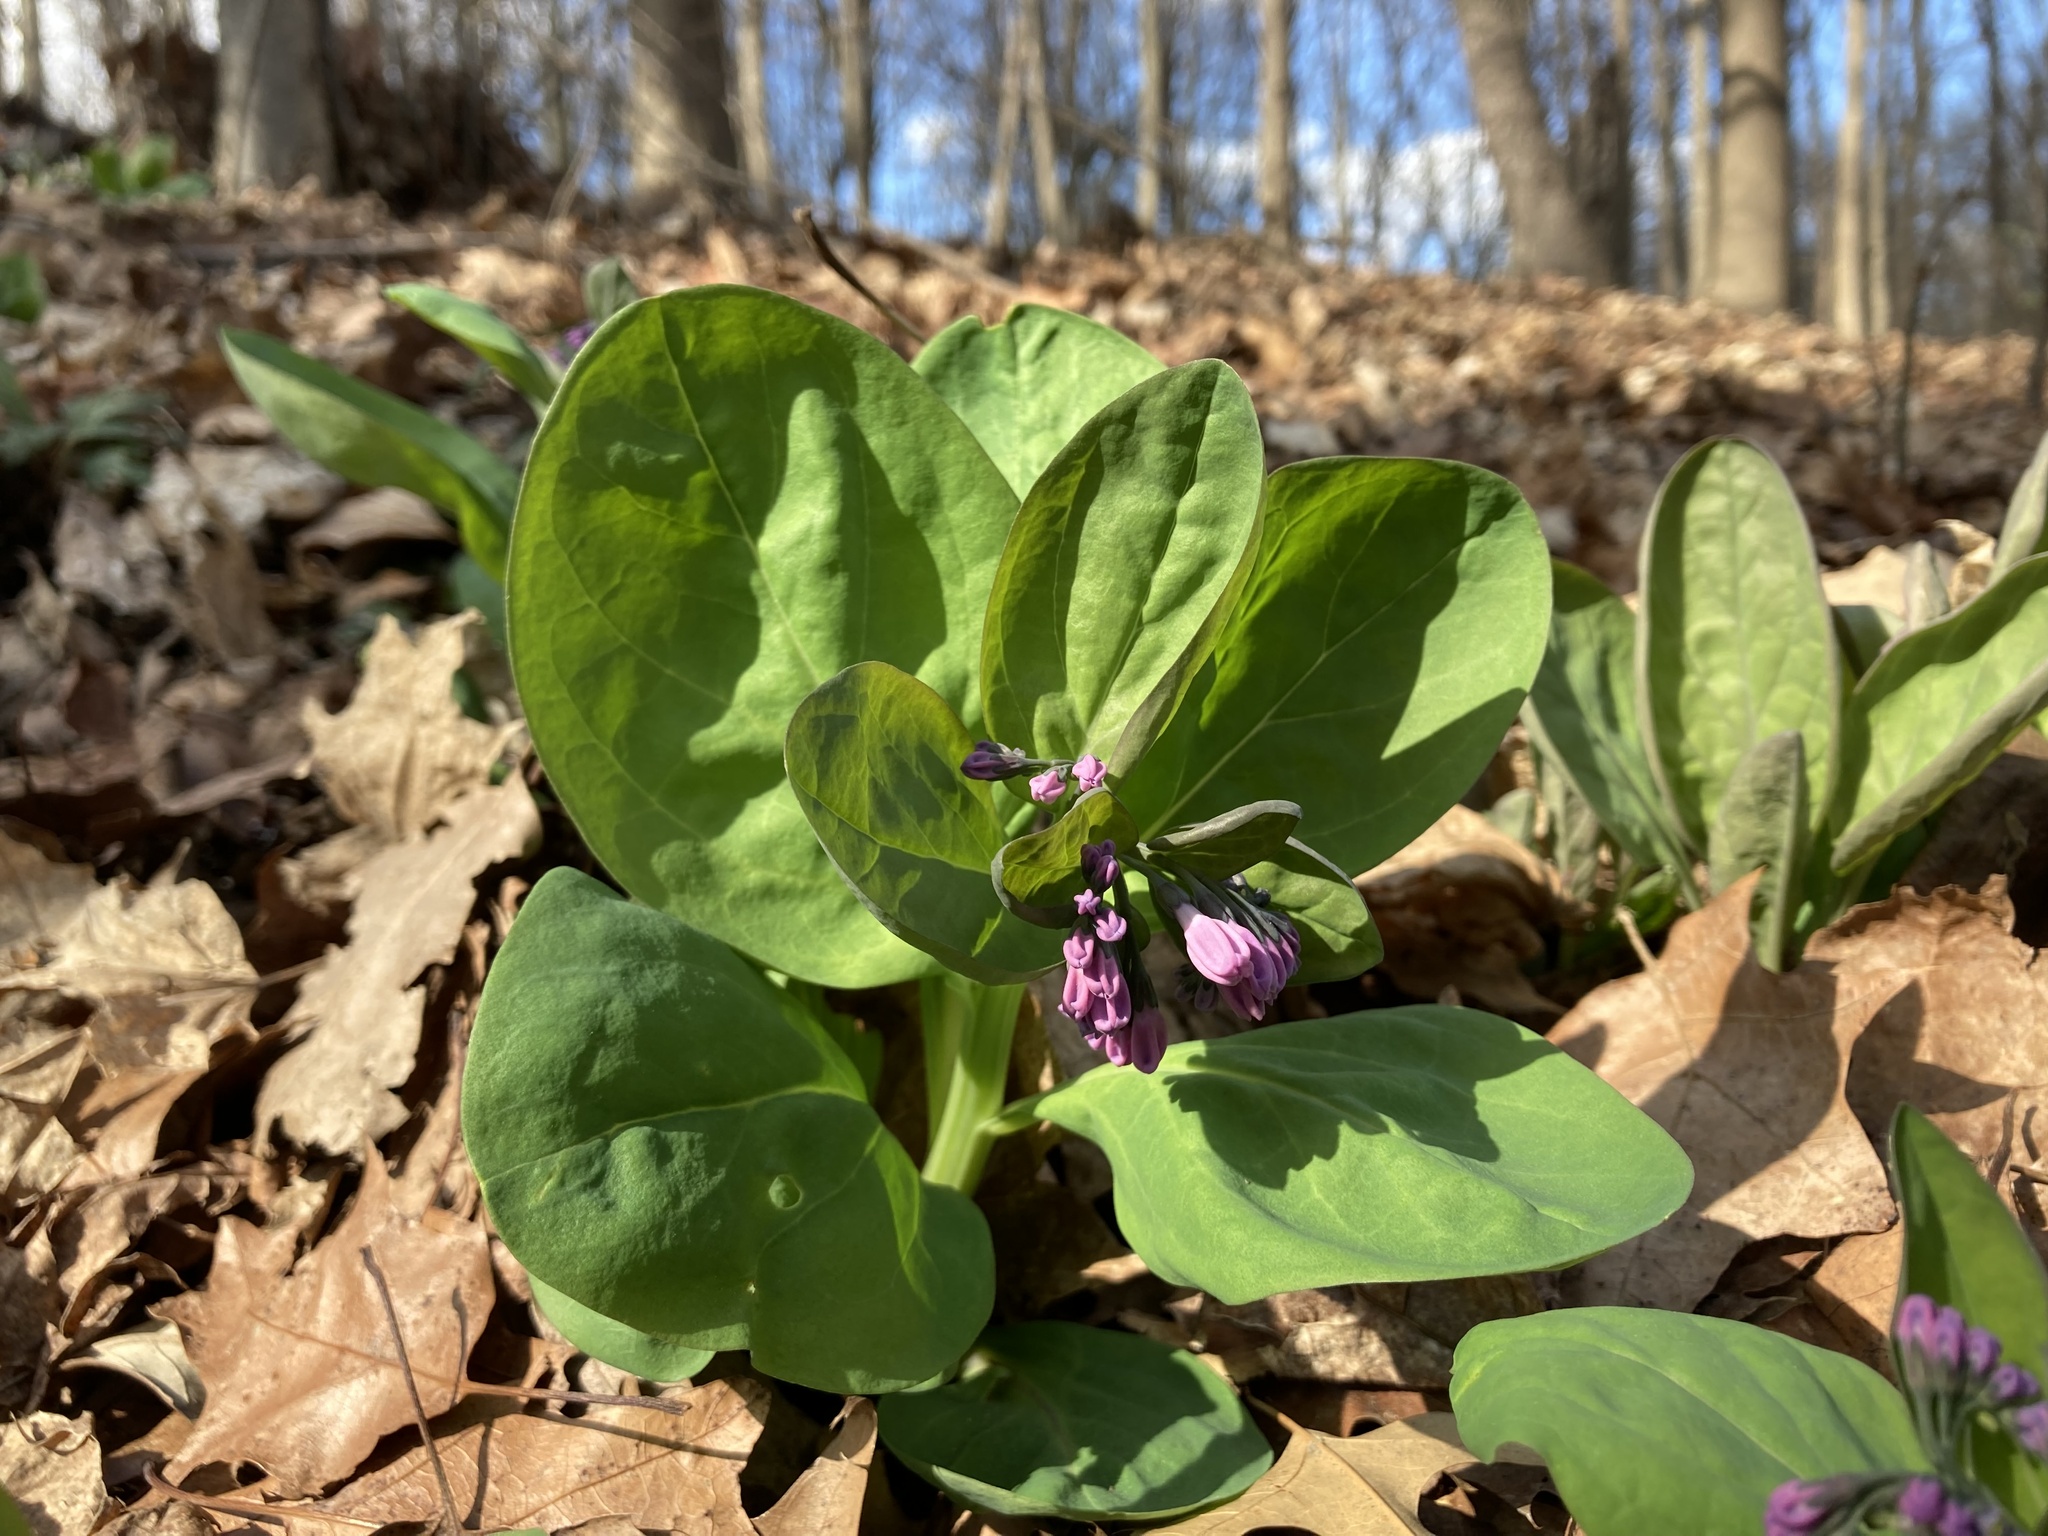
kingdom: Plantae
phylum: Tracheophyta
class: Magnoliopsida
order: Boraginales
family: Boraginaceae
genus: Mertensia
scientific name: Mertensia virginica
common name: Virginia bluebells
